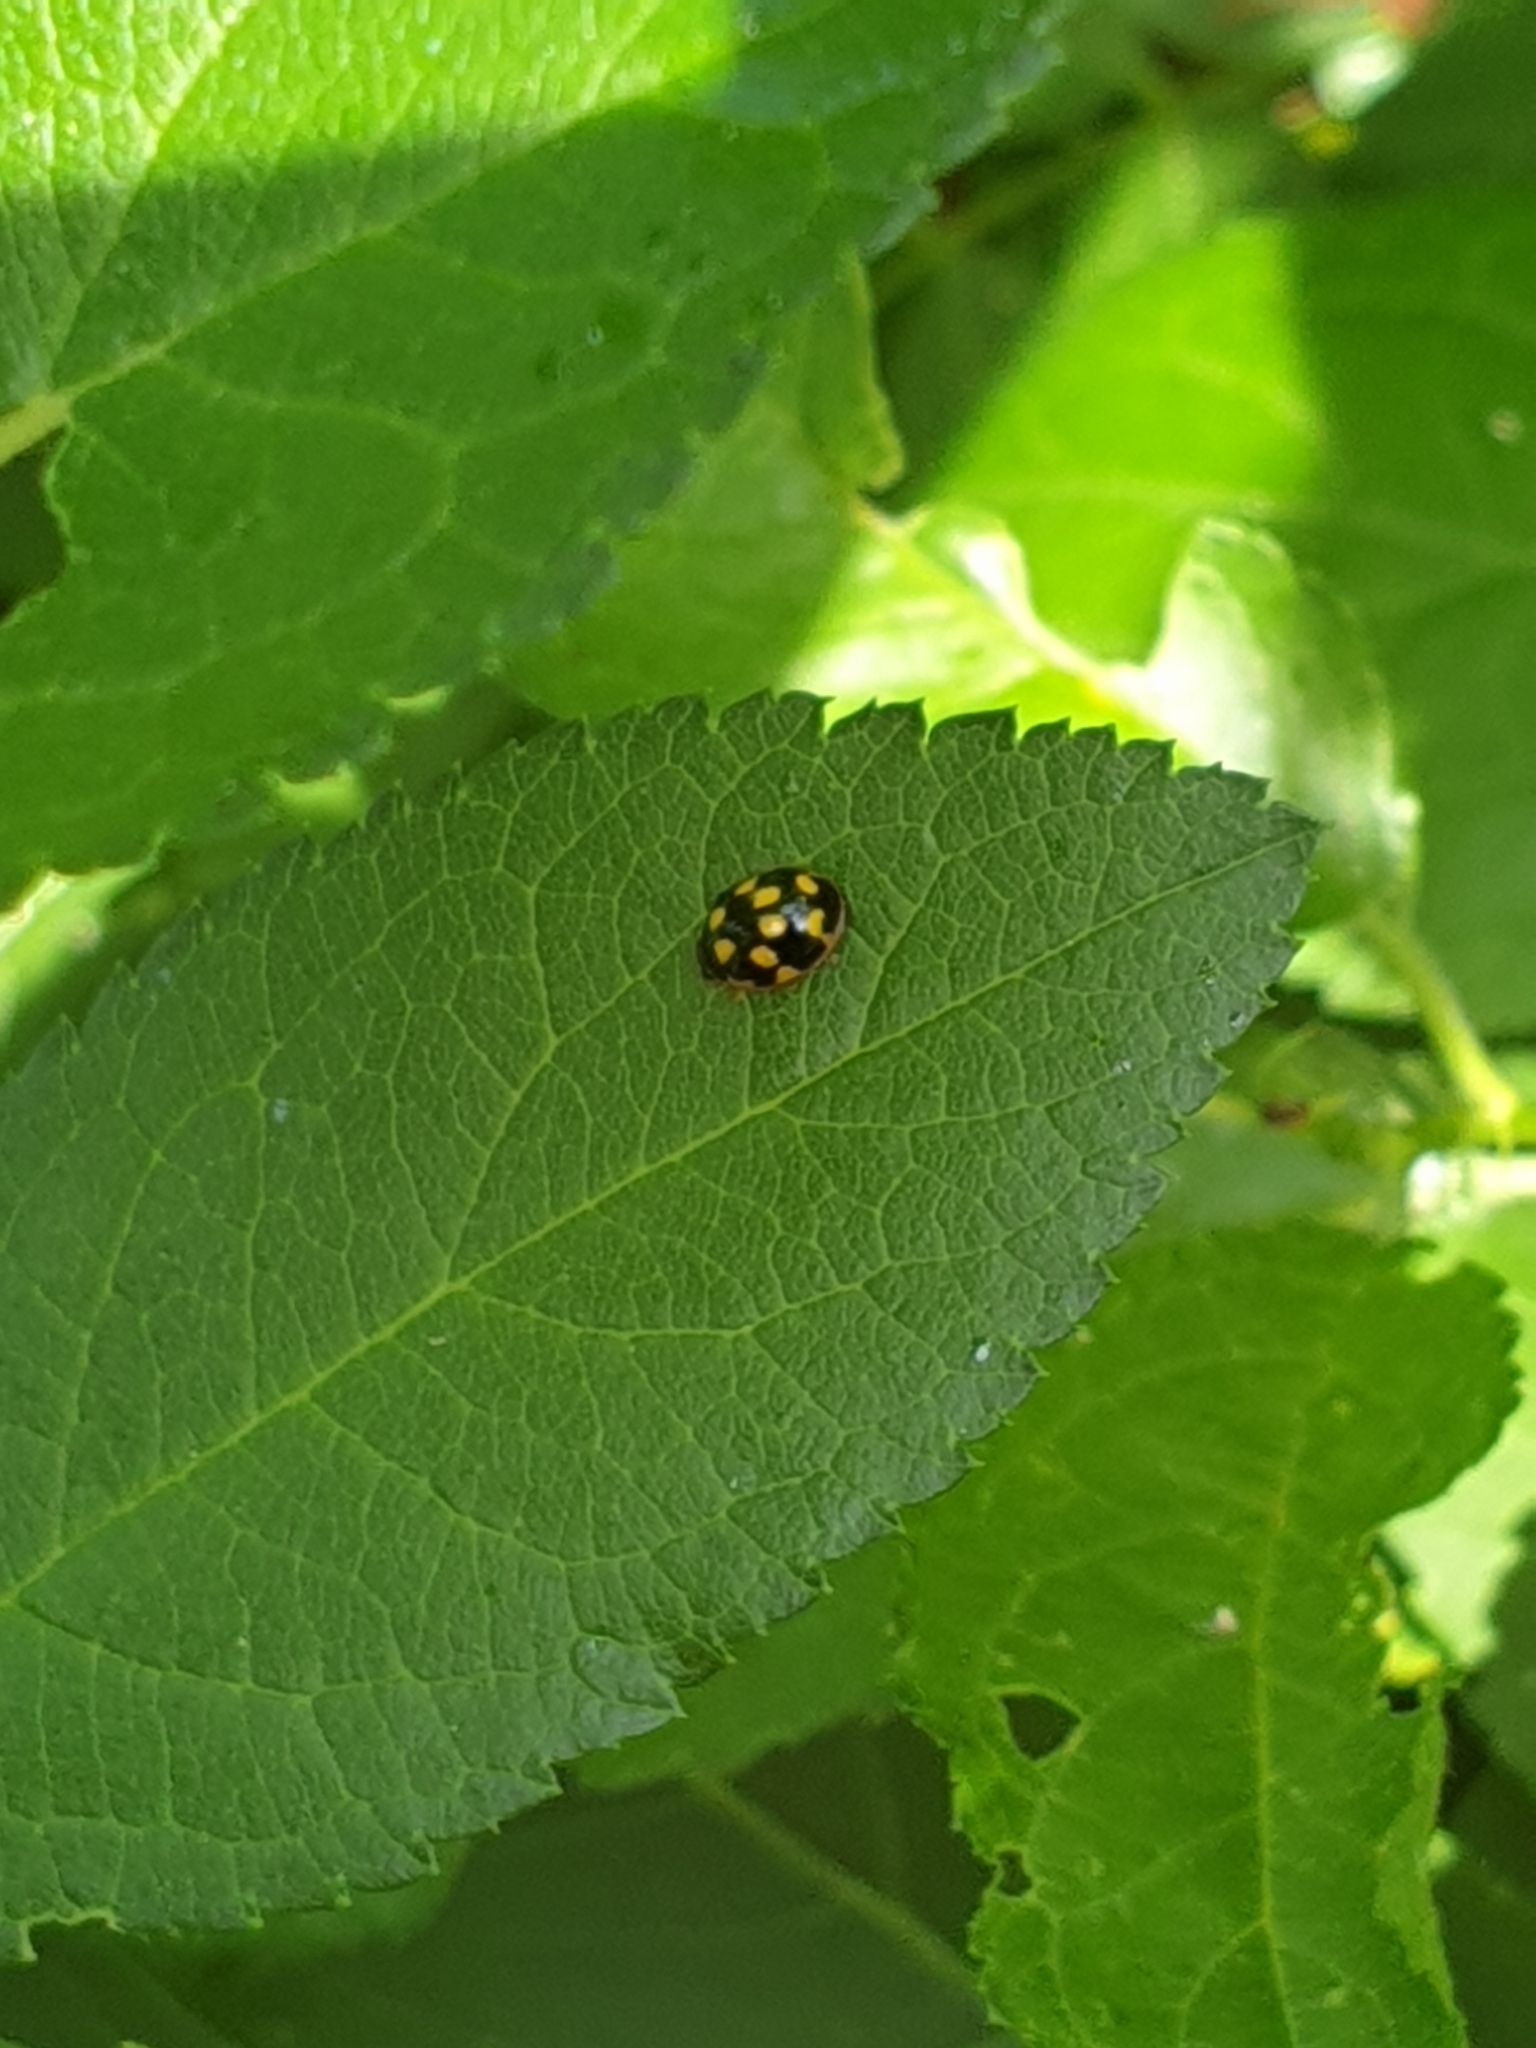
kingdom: Animalia
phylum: Arthropoda
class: Insecta
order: Coleoptera
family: Coccinellidae
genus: Propylaea
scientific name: Propylaea quatuordecimpunctata
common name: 14-spotted ladybird beetle
